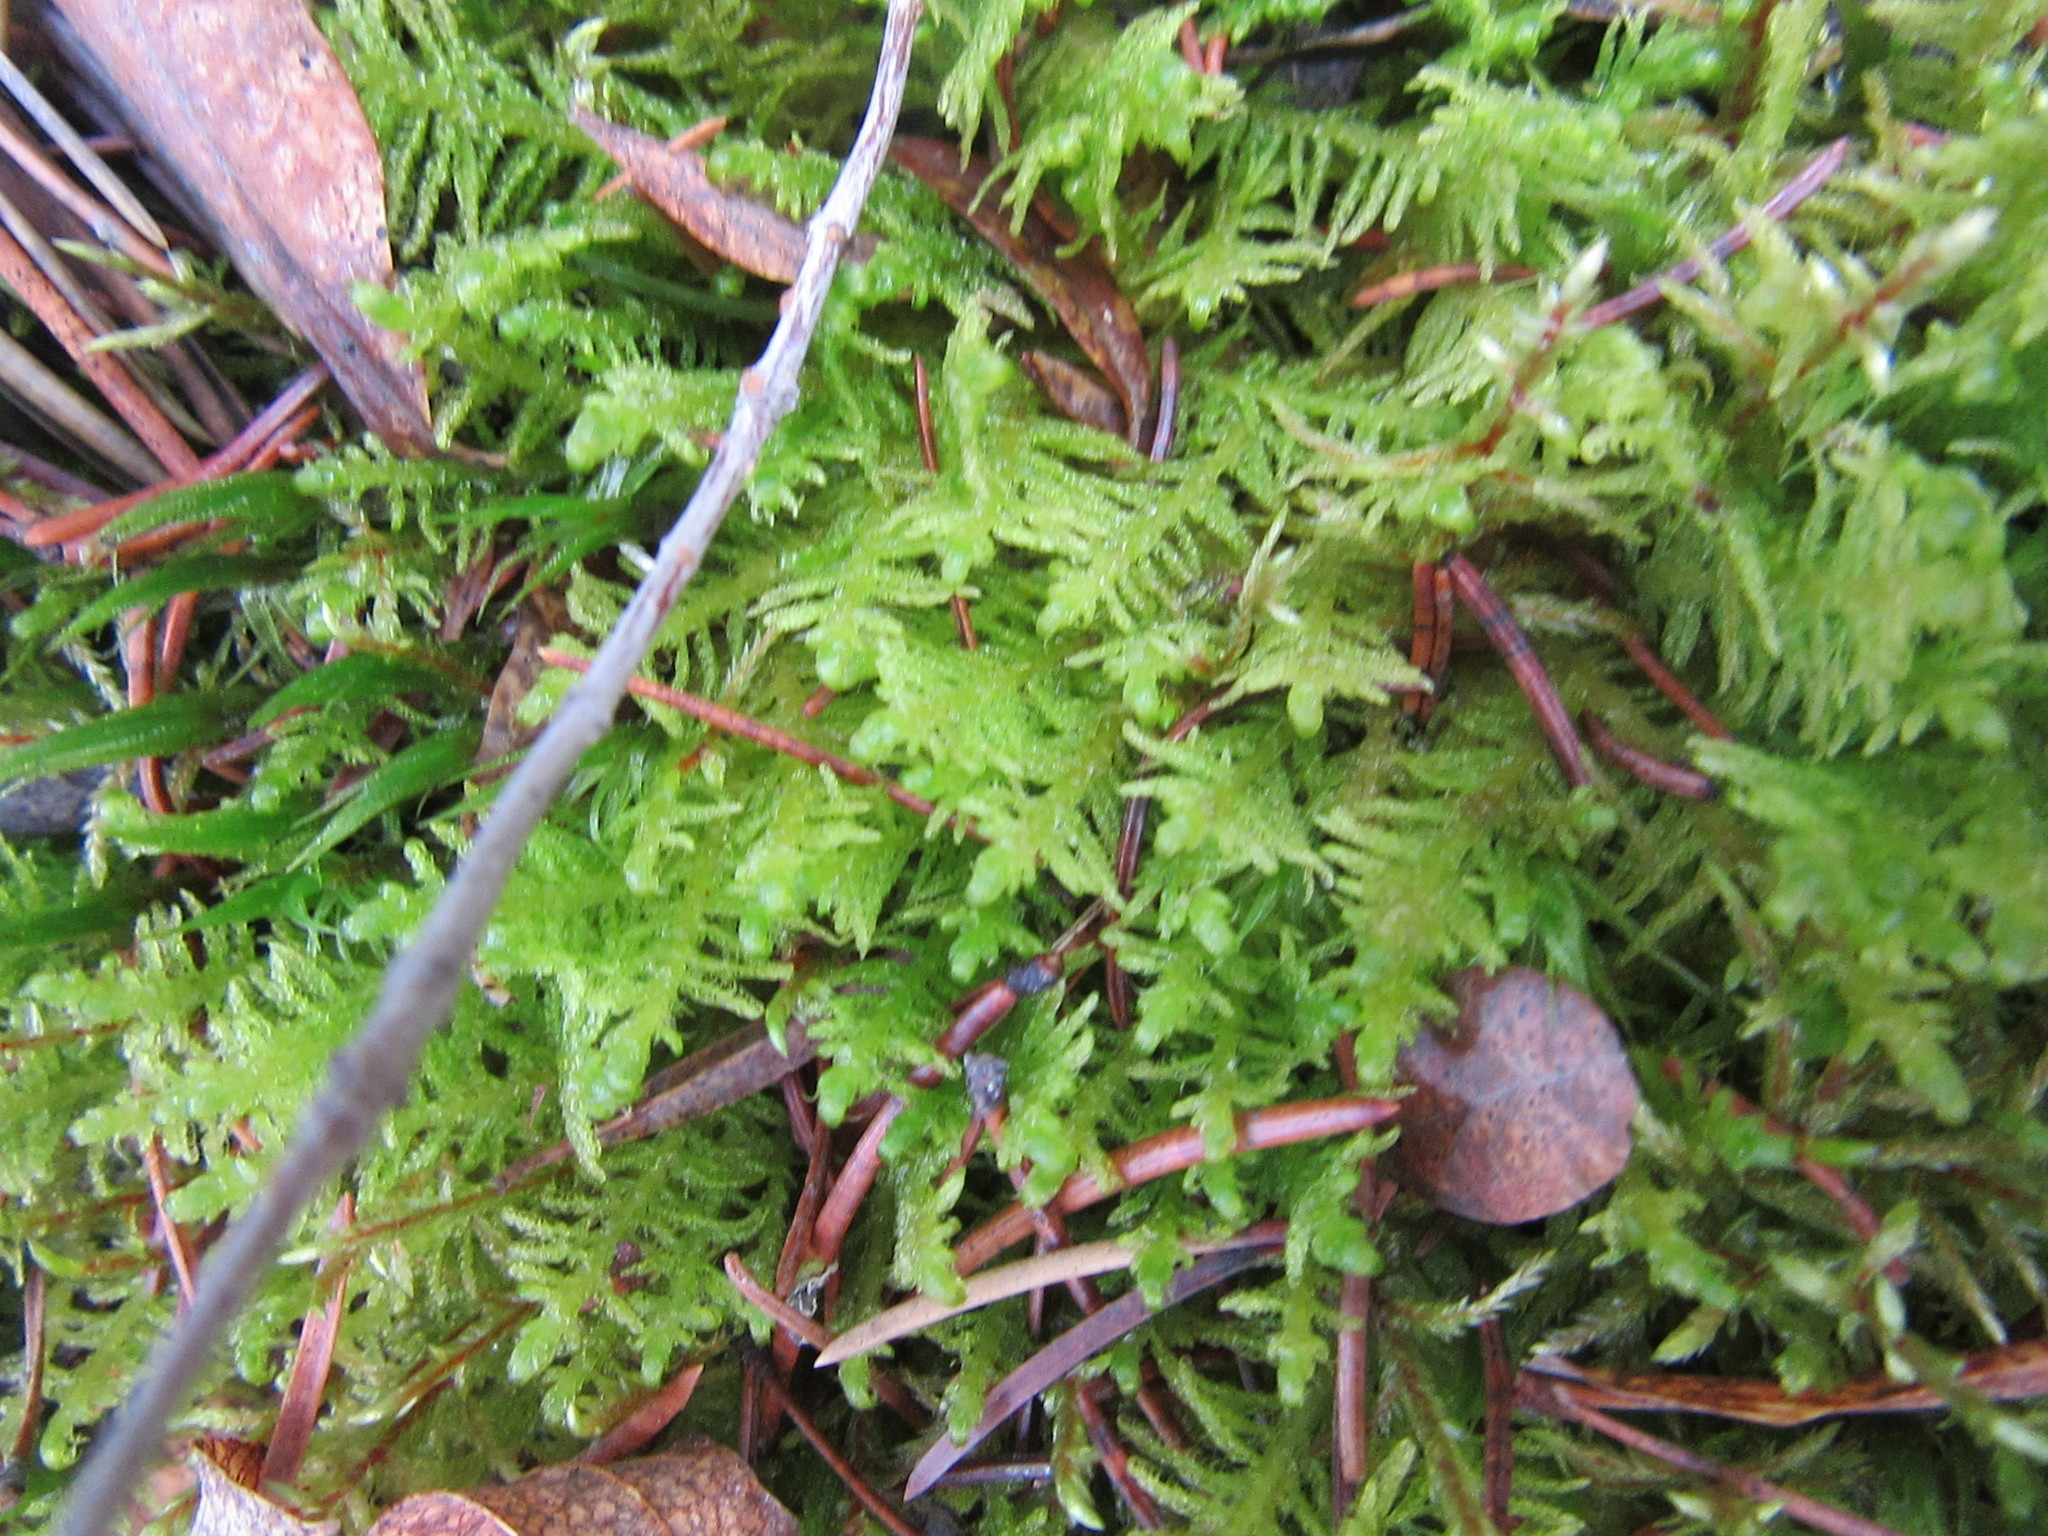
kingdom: Plantae
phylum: Bryophyta
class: Bryopsida
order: Hypnales
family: Pylaisiaceae
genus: Ptilium
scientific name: Ptilium crista-castrensis
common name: Knight's plume moss
